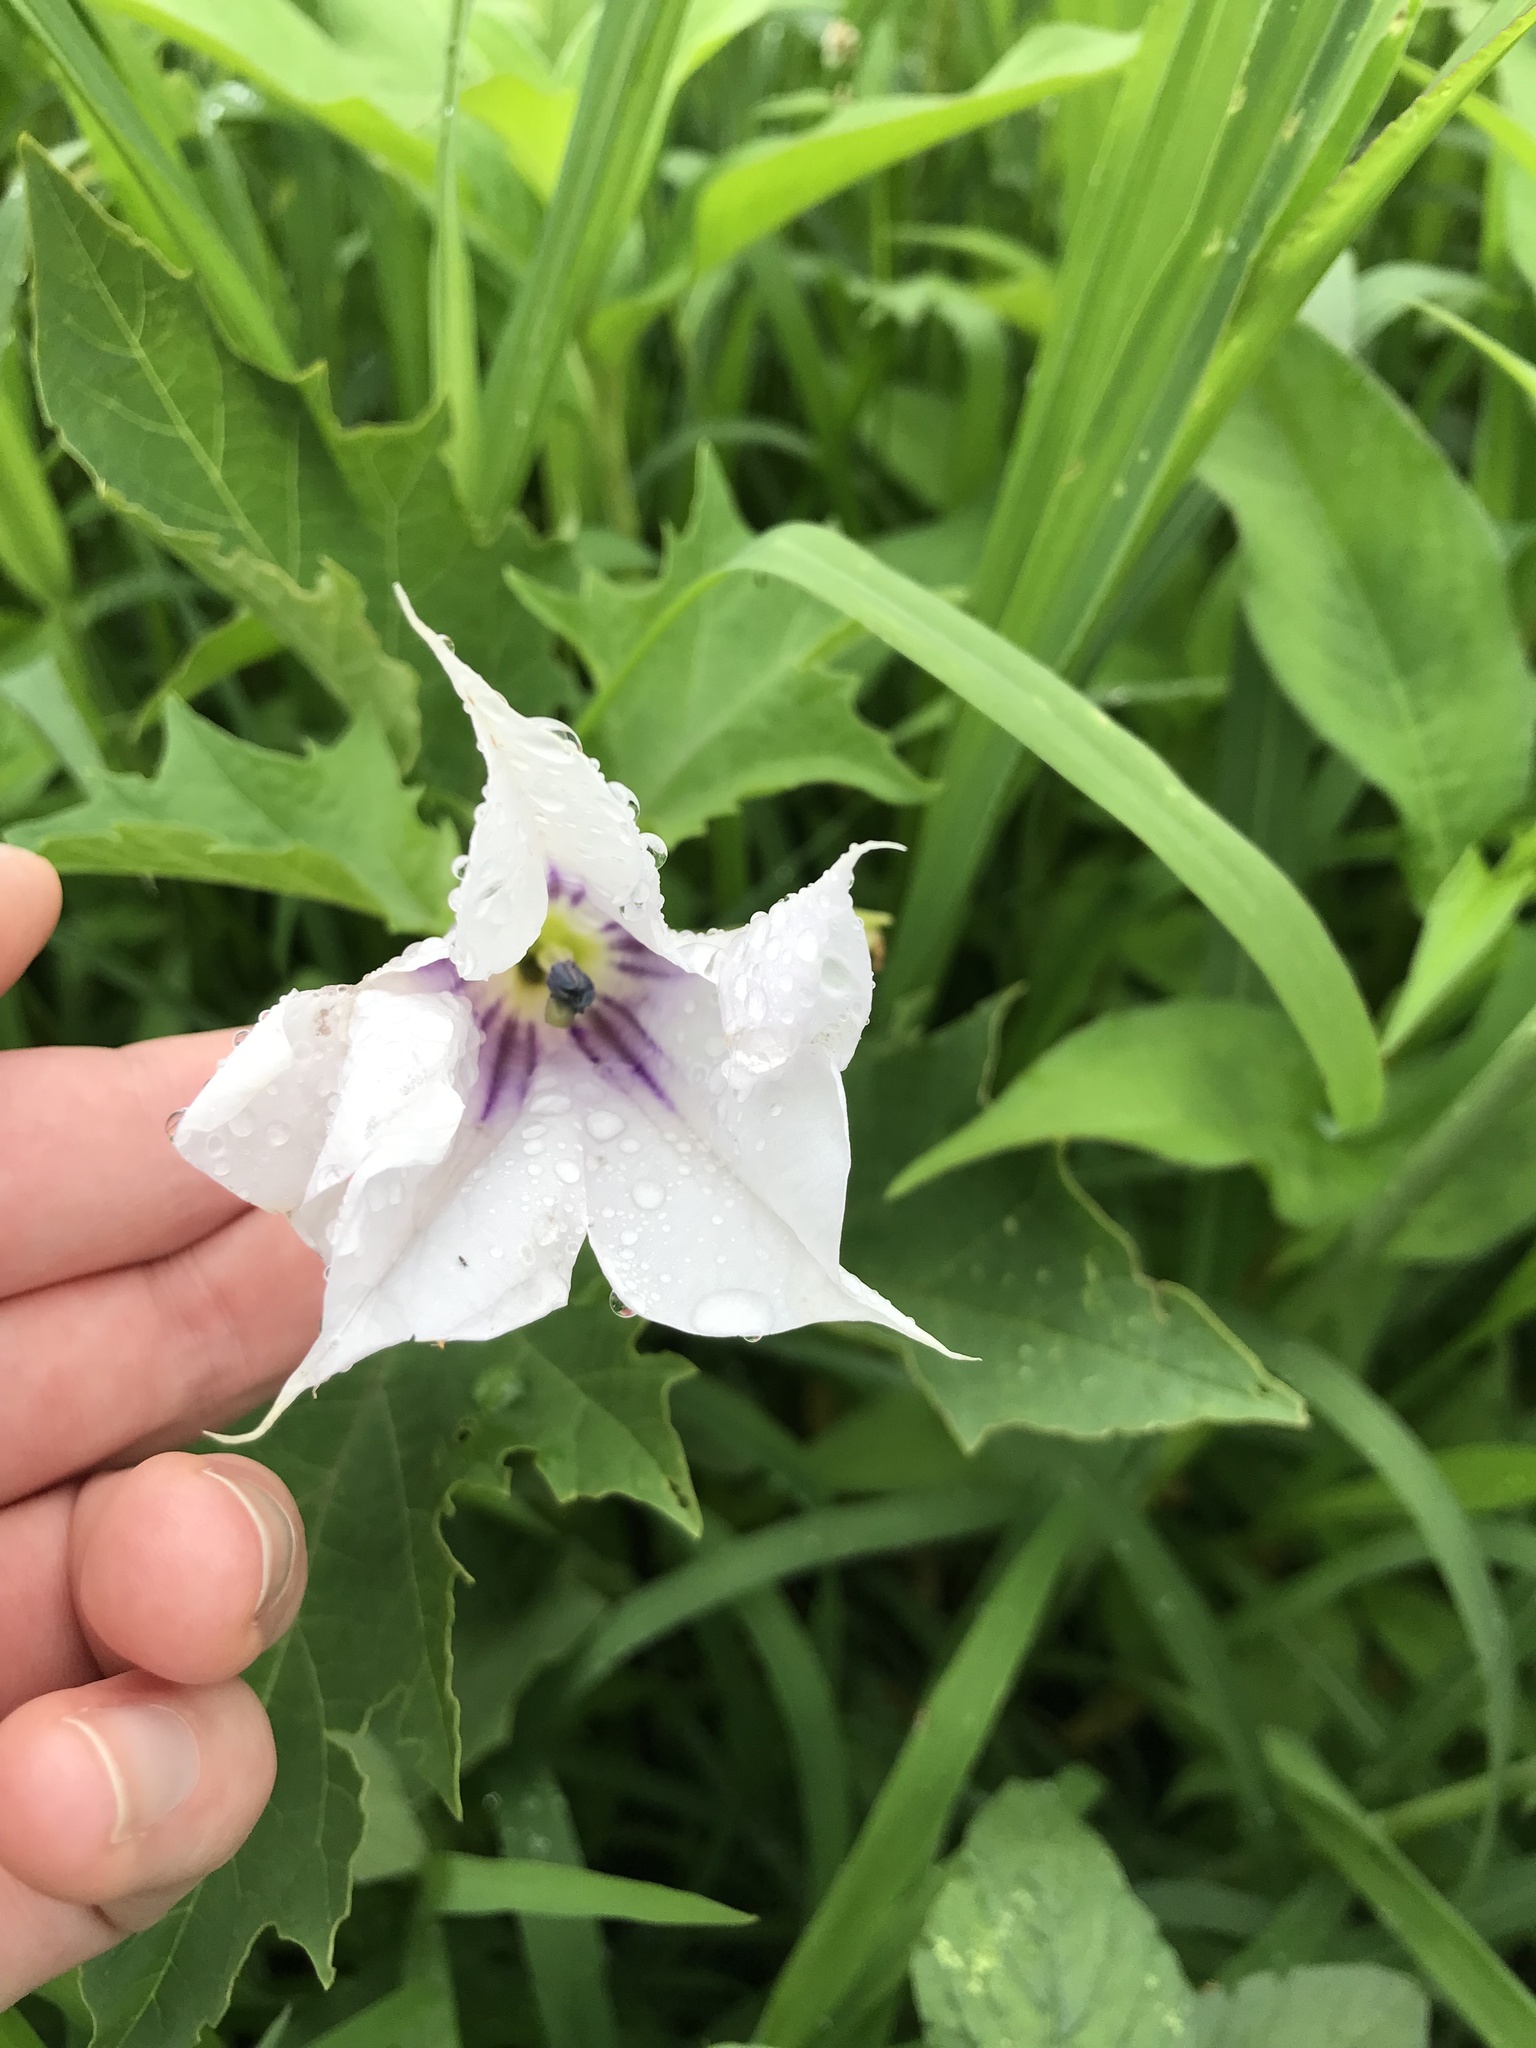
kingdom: Plantae
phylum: Tracheophyta
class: Magnoliopsida
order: Solanales
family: Solanaceae
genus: Datura
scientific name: Datura stramonium
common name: Thorn-apple
